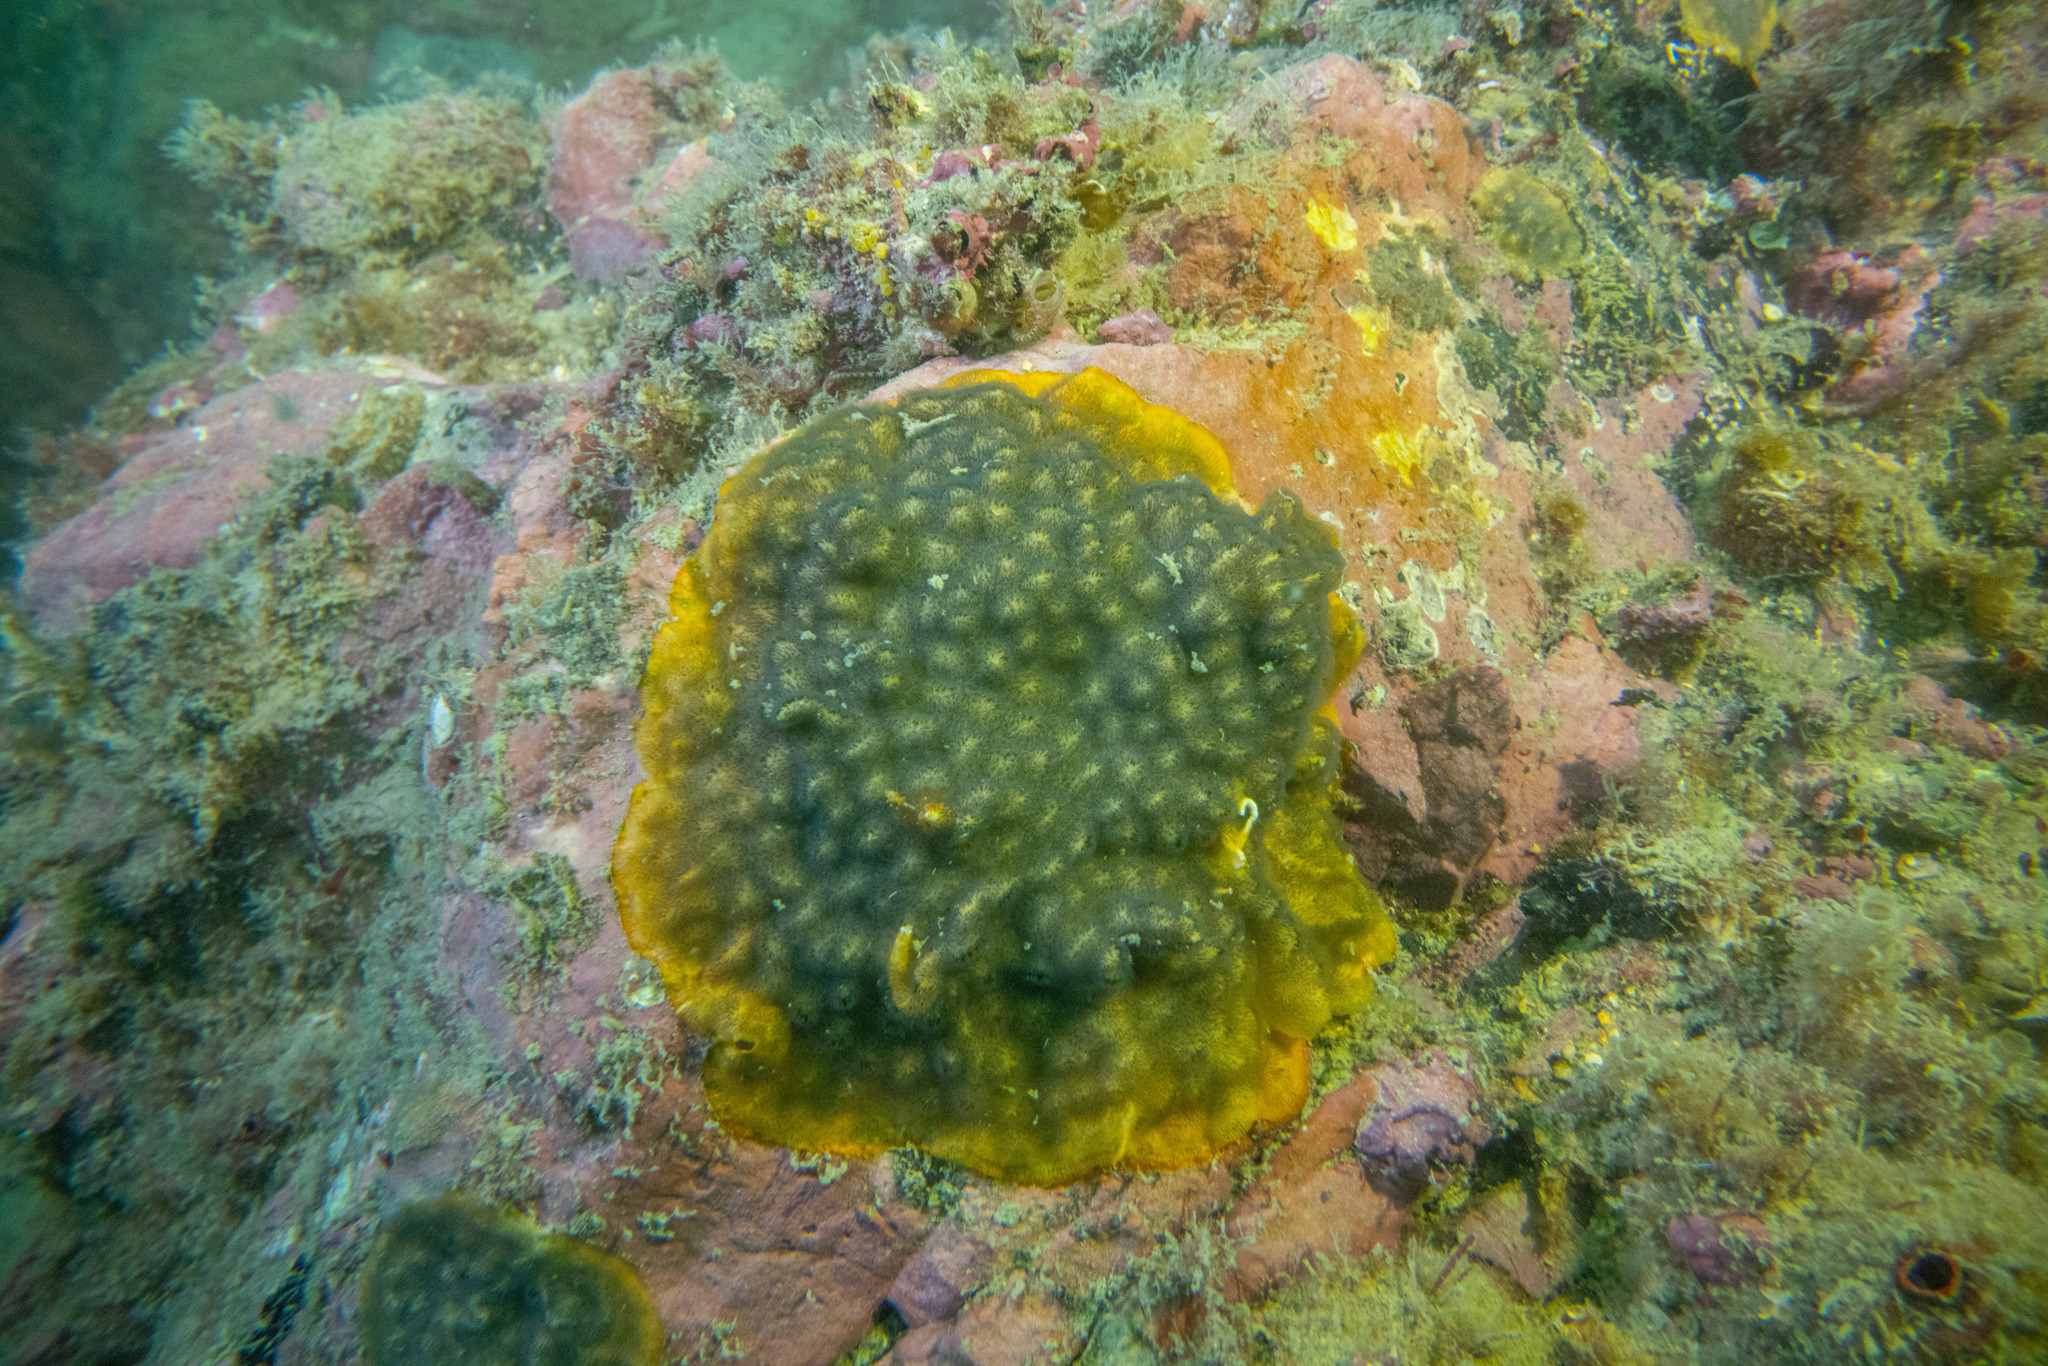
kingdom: Animalia
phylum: Bryozoa
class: Gymnolaemata
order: Cheilostomatida
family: Celleporidae
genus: Celleporaria
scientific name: Celleporaria nodulosa
